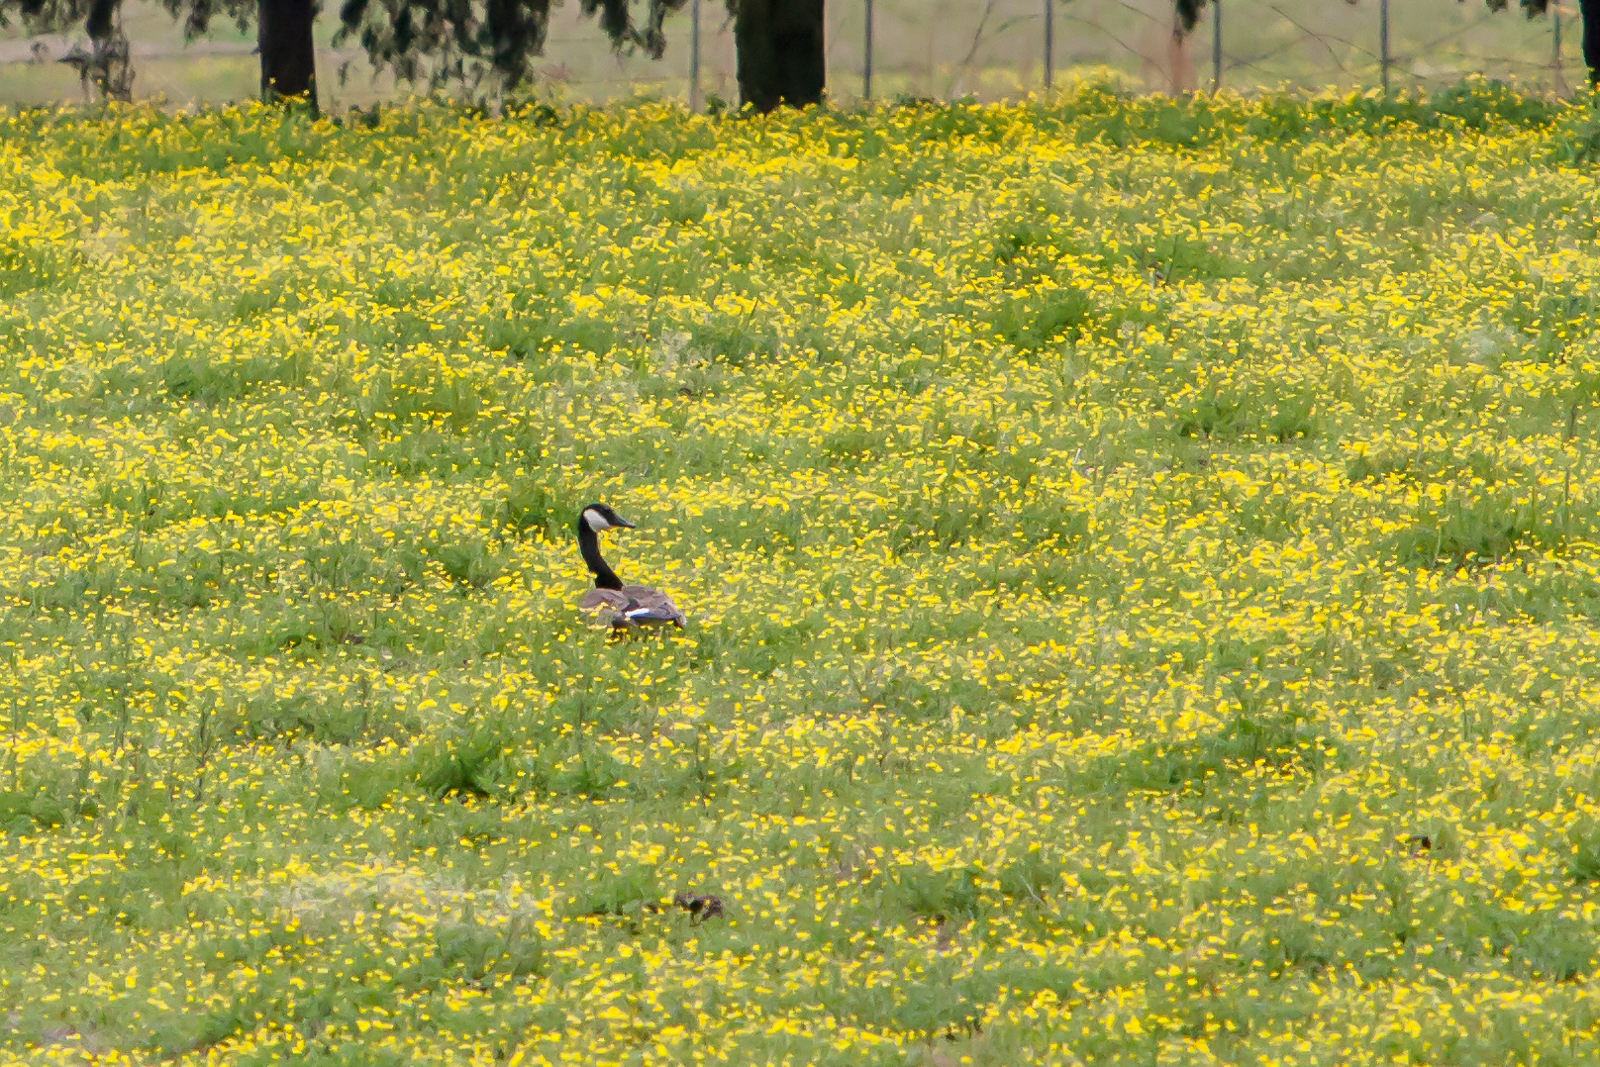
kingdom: Animalia
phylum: Chordata
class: Aves
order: Anseriformes
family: Anatidae
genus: Branta
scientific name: Branta canadensis
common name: Canada goose
